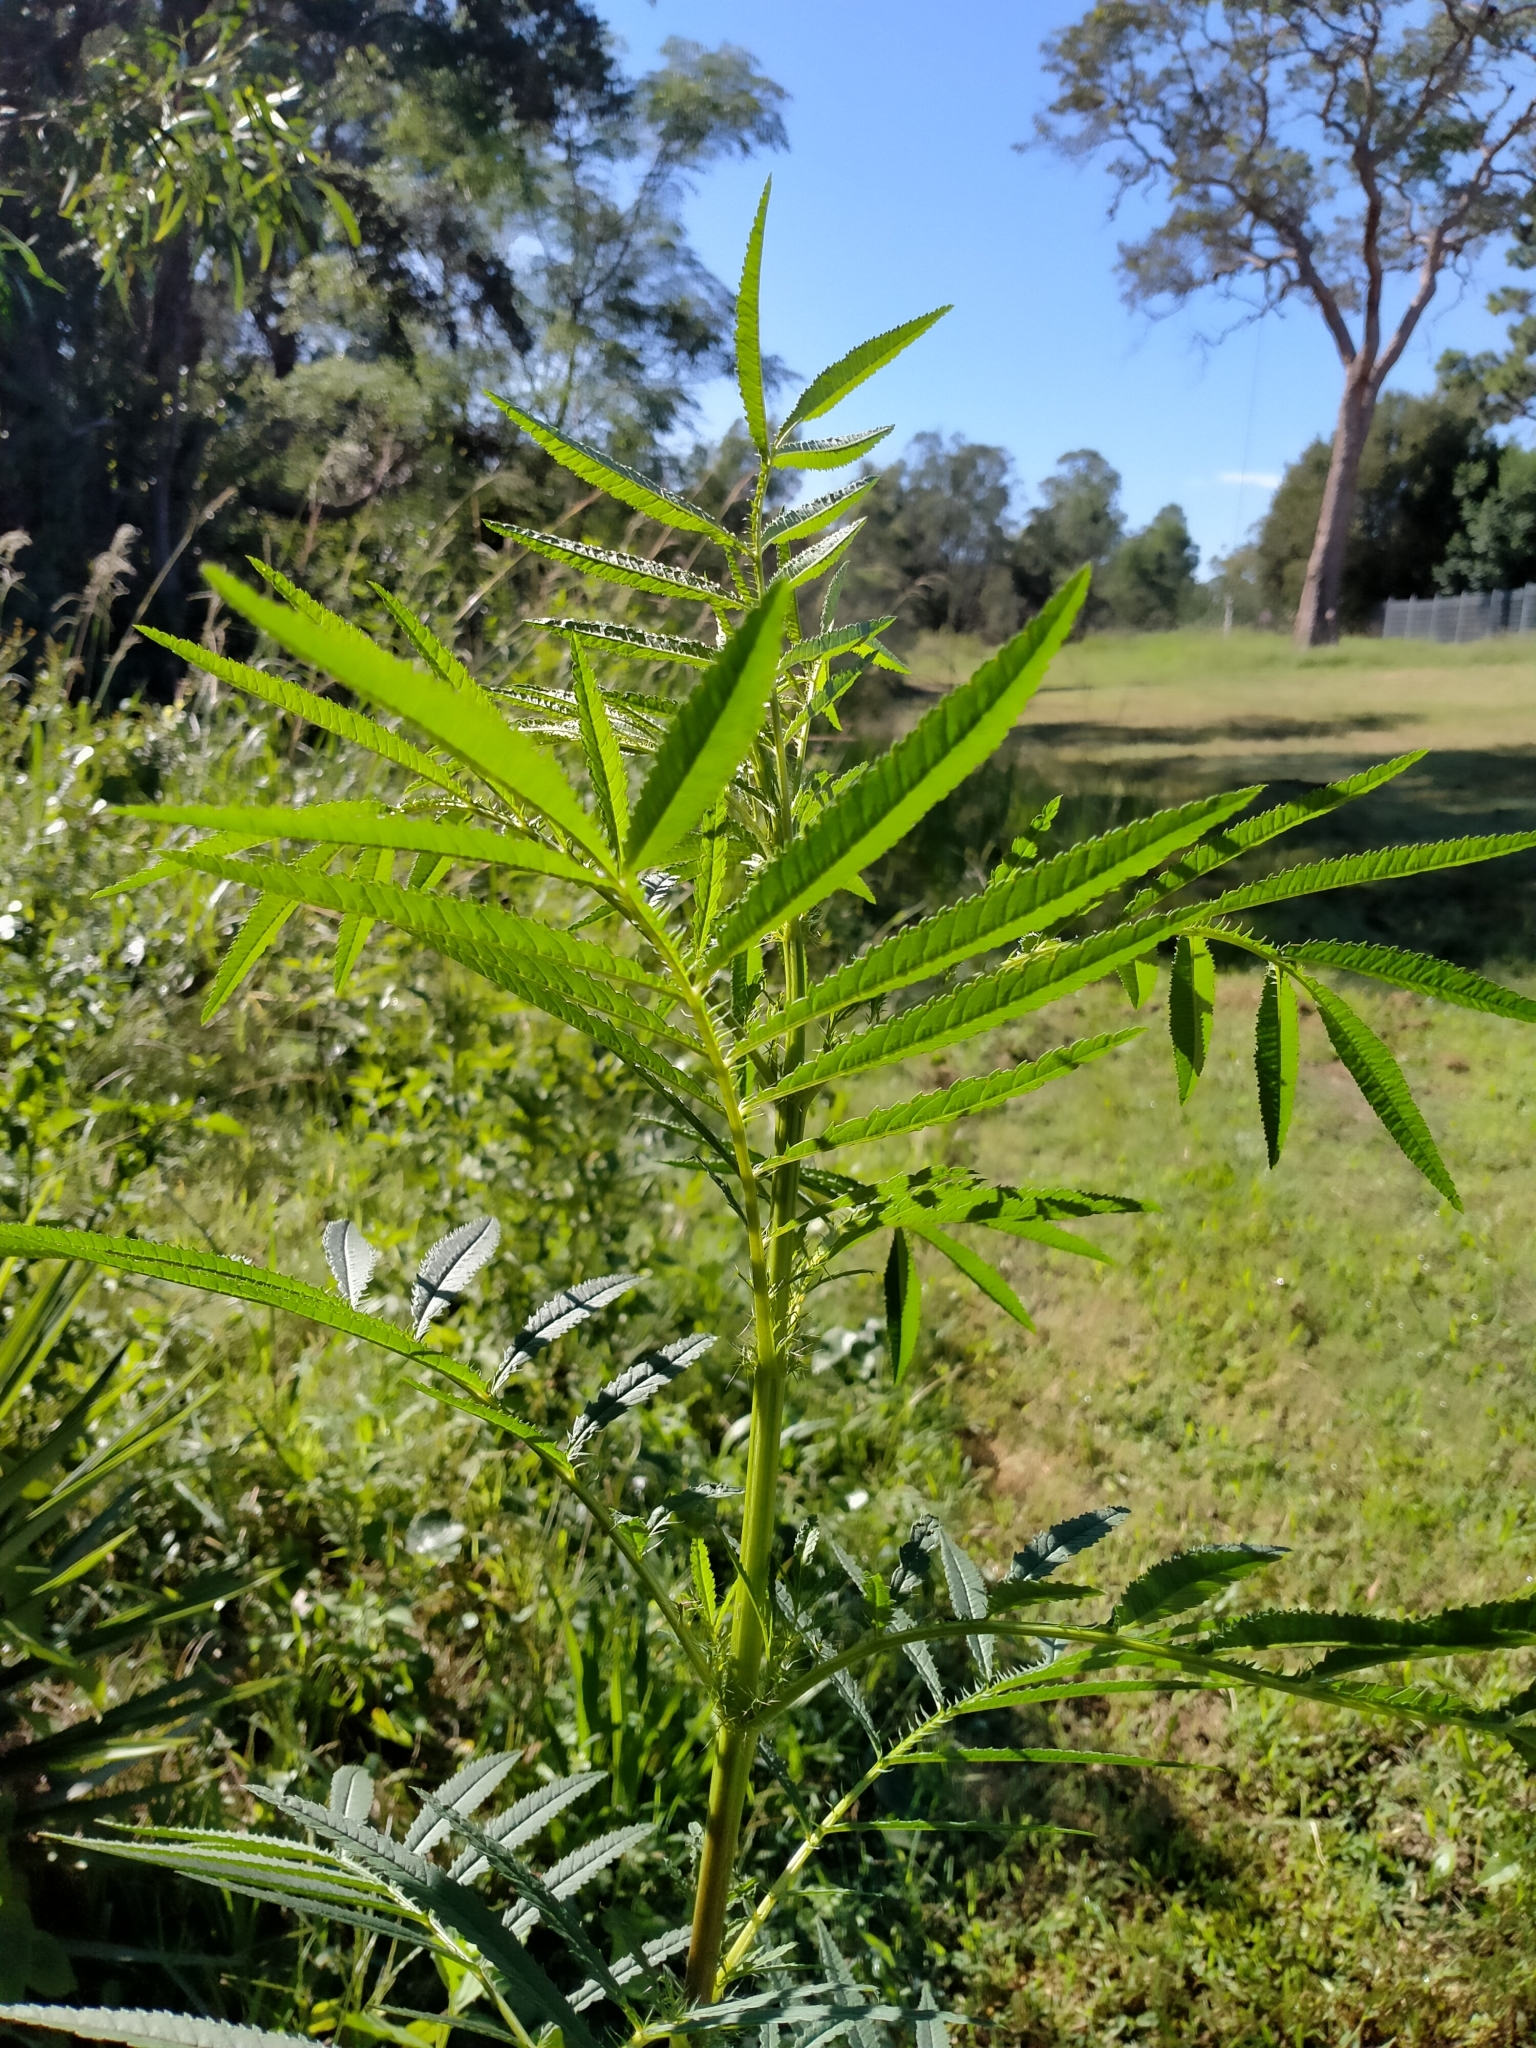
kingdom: Plantae
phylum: Tracheophyta
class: Magnoliopsida
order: Asterales
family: Asteraceae
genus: Tagetes
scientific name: Tagetes minuta
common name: Muster john henry
